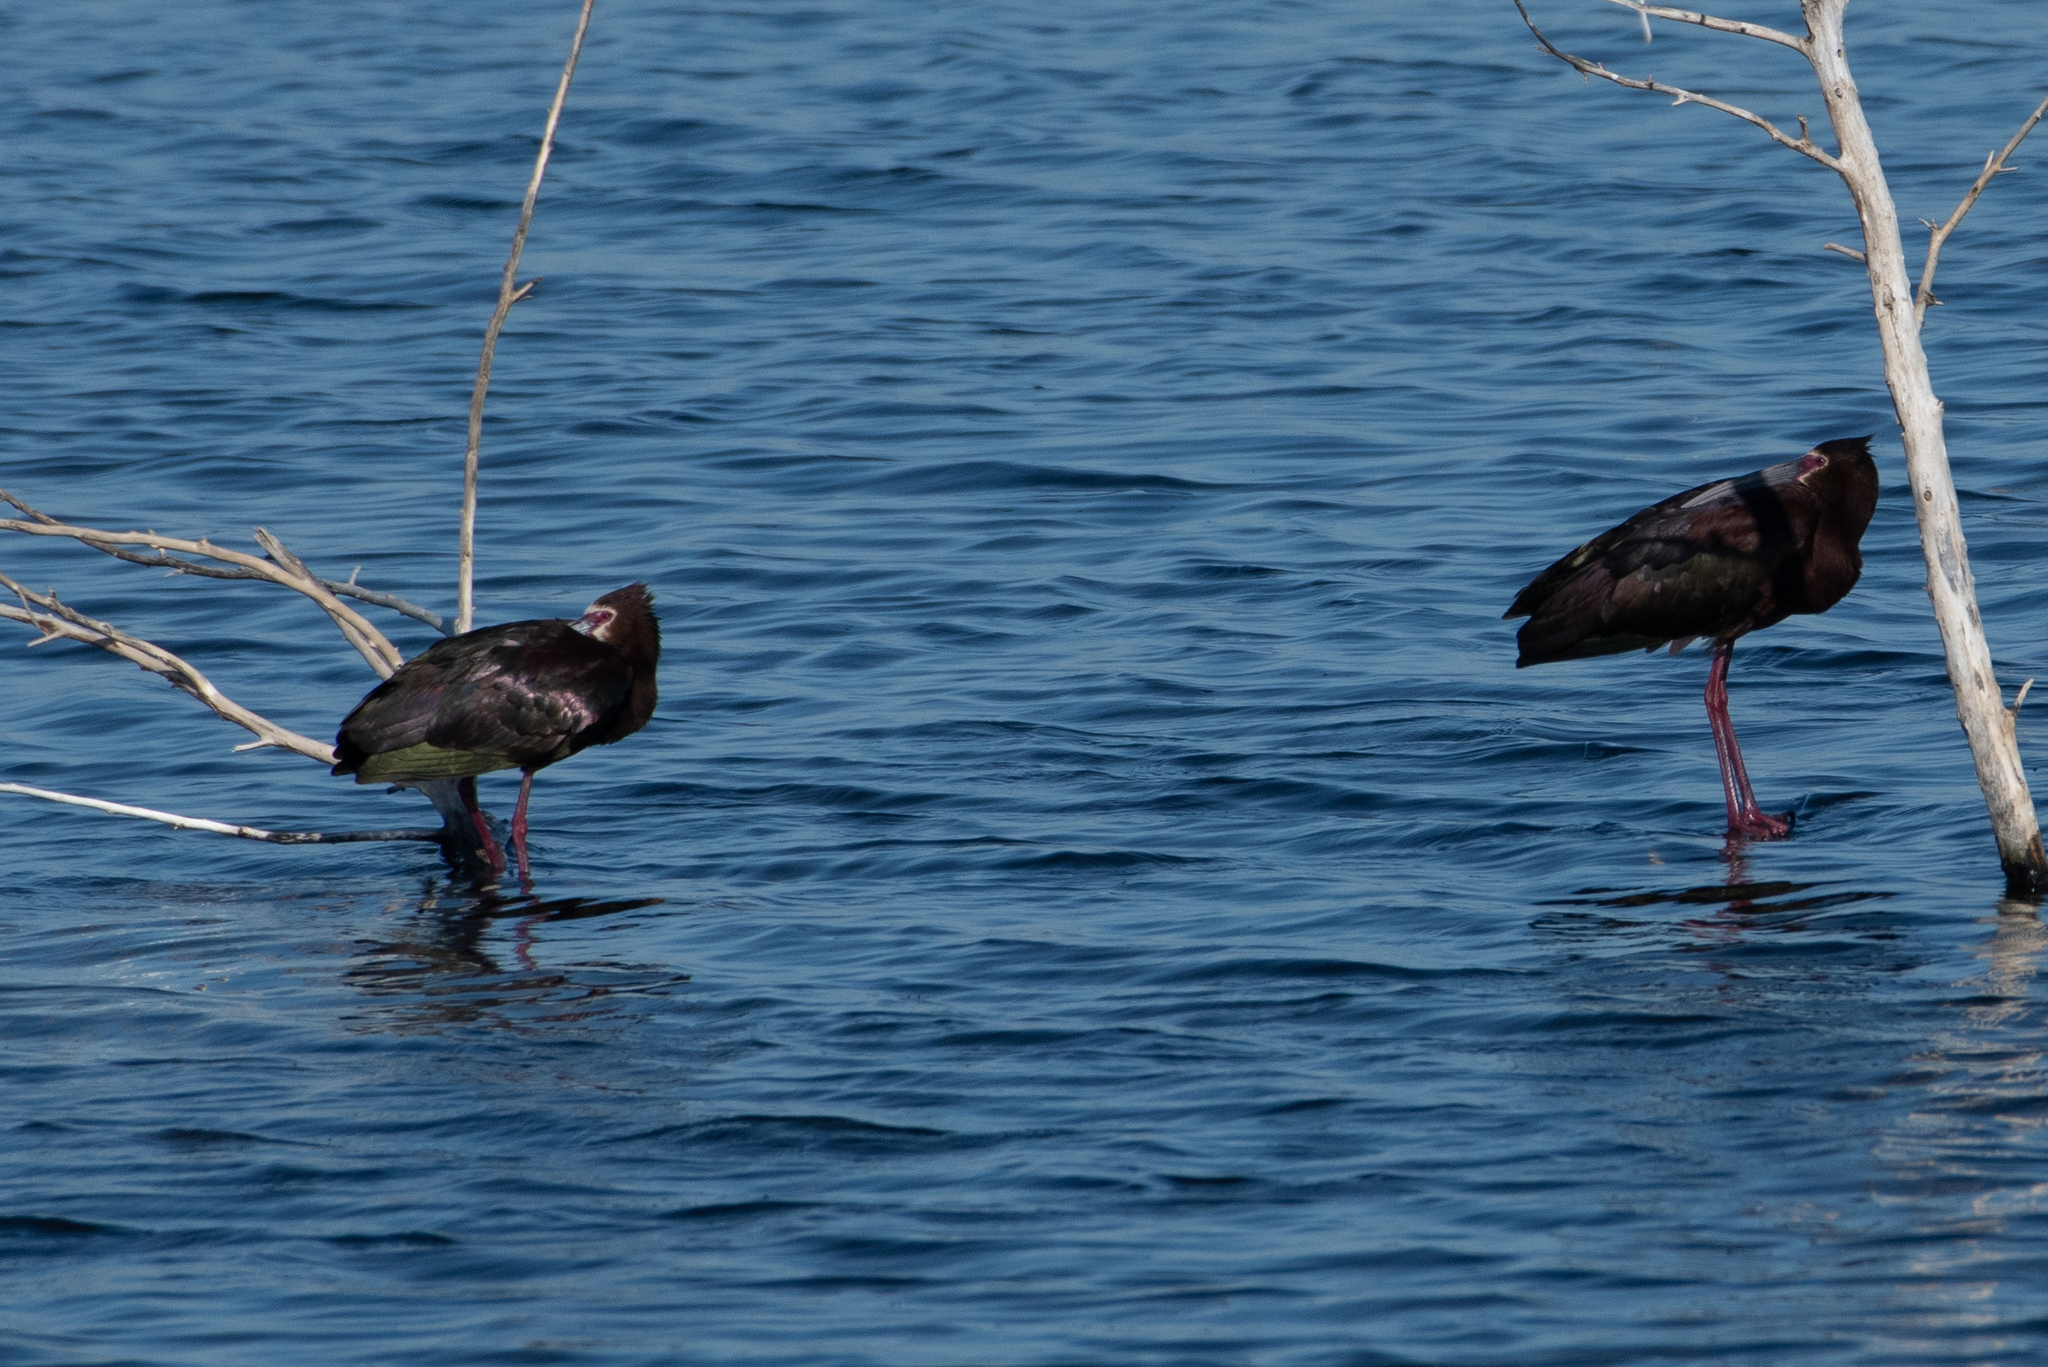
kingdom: Animalia
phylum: Chordata
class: Aves
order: Pelecaniformes
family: Threskiornithidae
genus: Plegadis
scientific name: Plegadis chihi
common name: White-faced ibis
